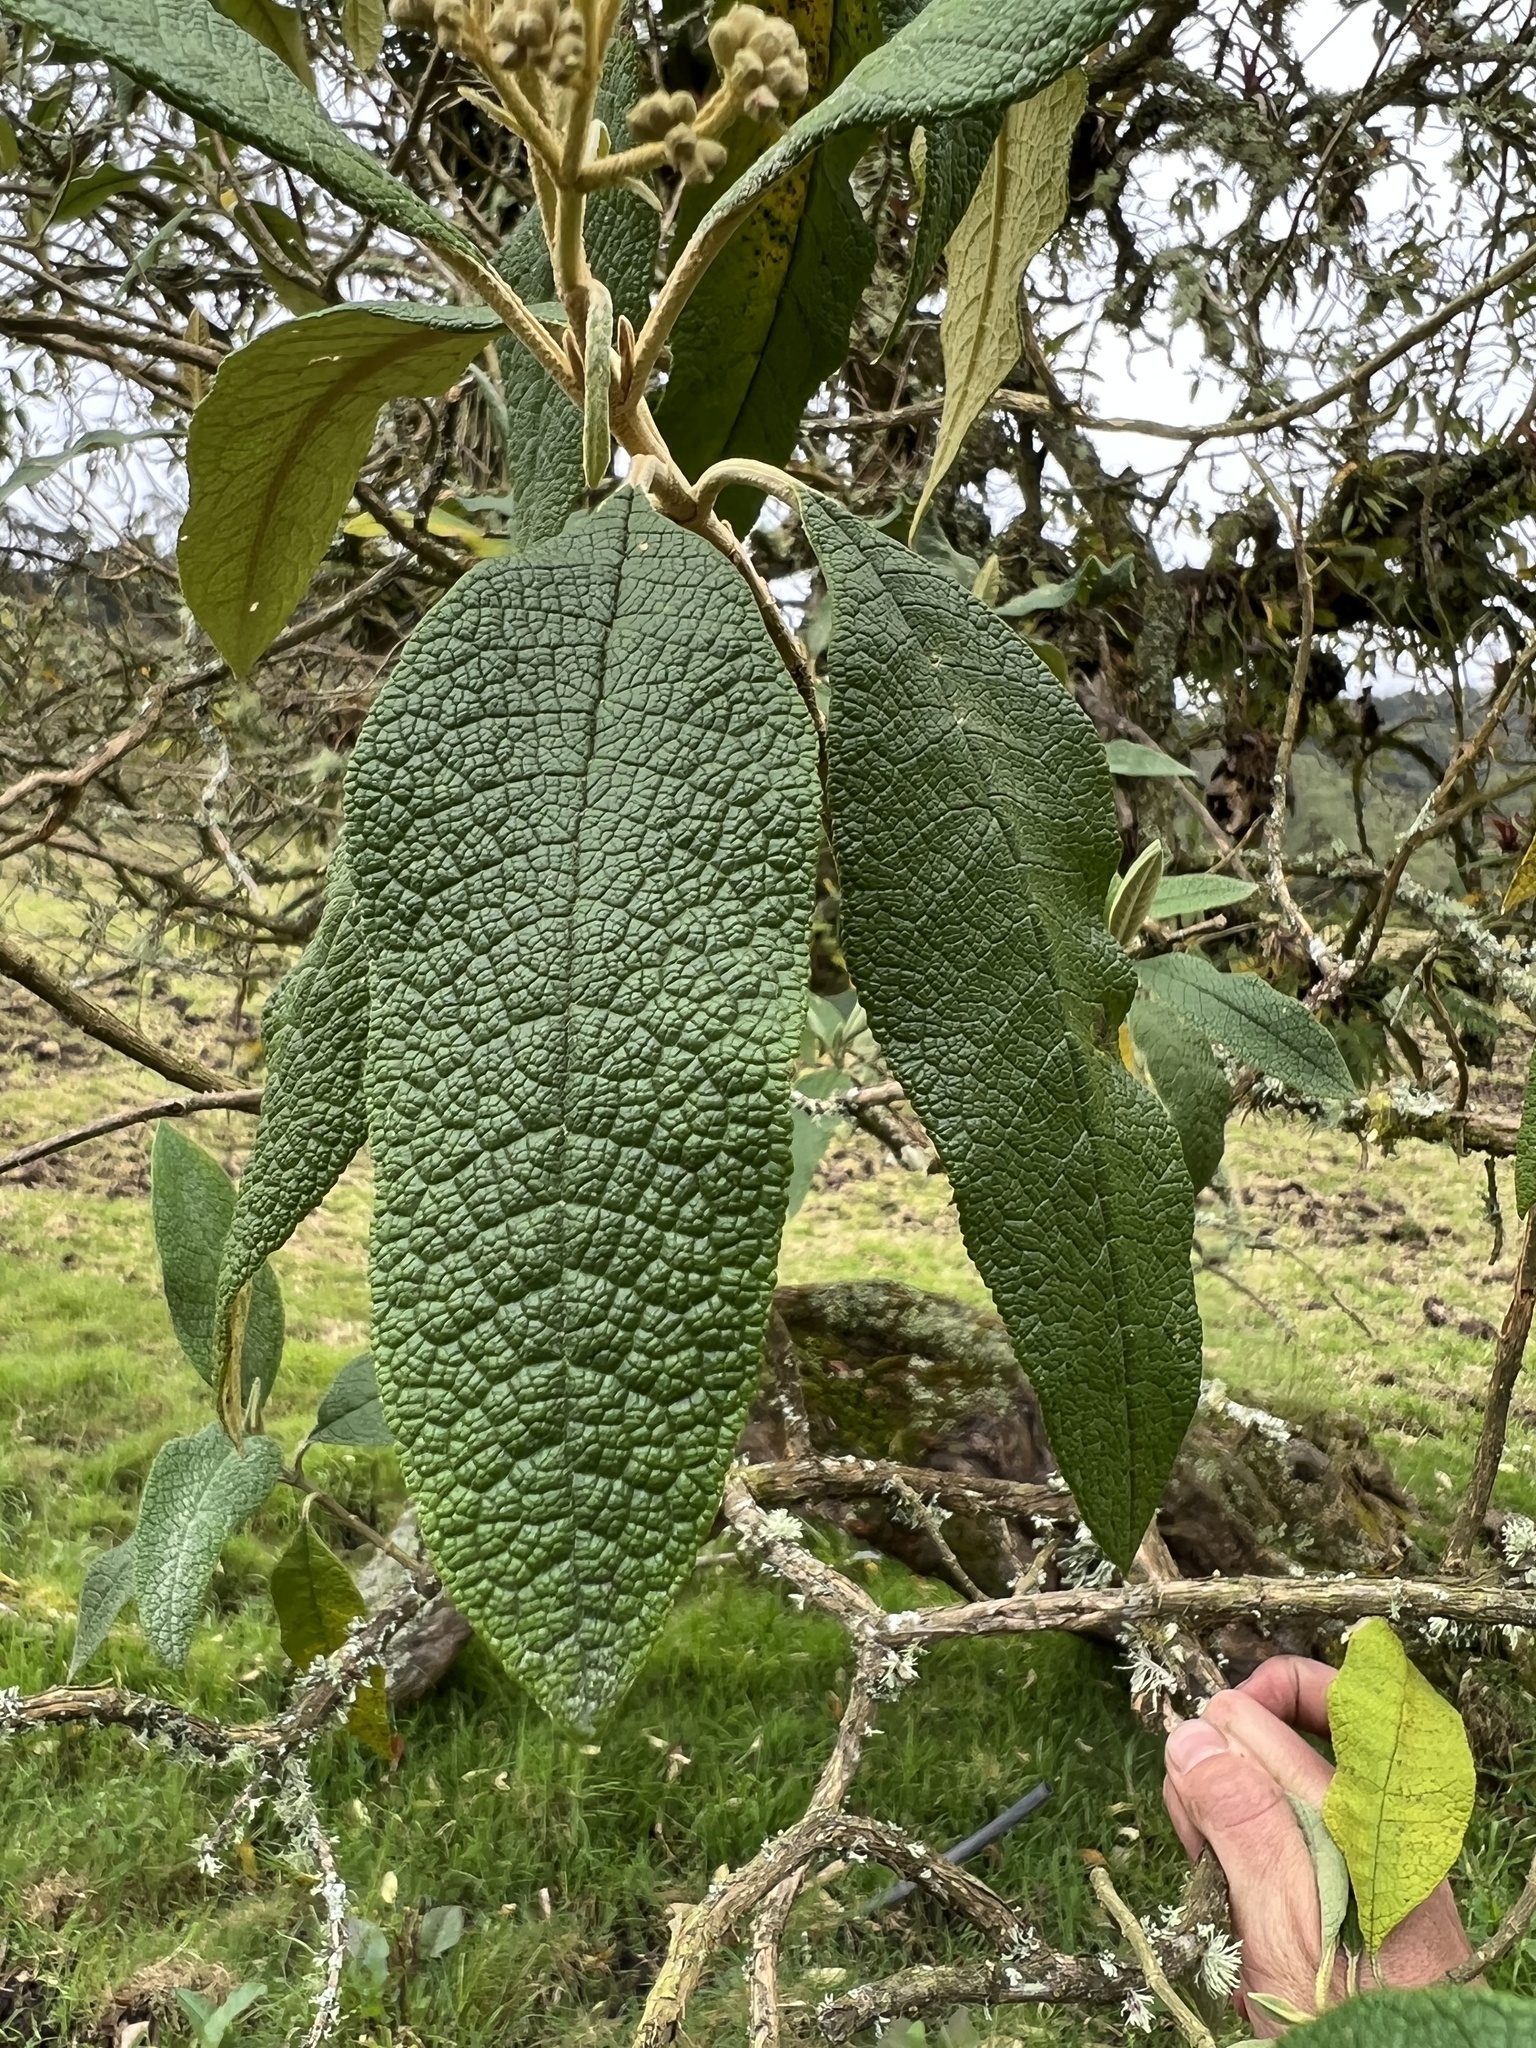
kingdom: Plantae
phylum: Tracheophyta
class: Magnoliopsida
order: Lamiales
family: Scrophulariaceae
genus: Buddleja
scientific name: Buddleja bullata
